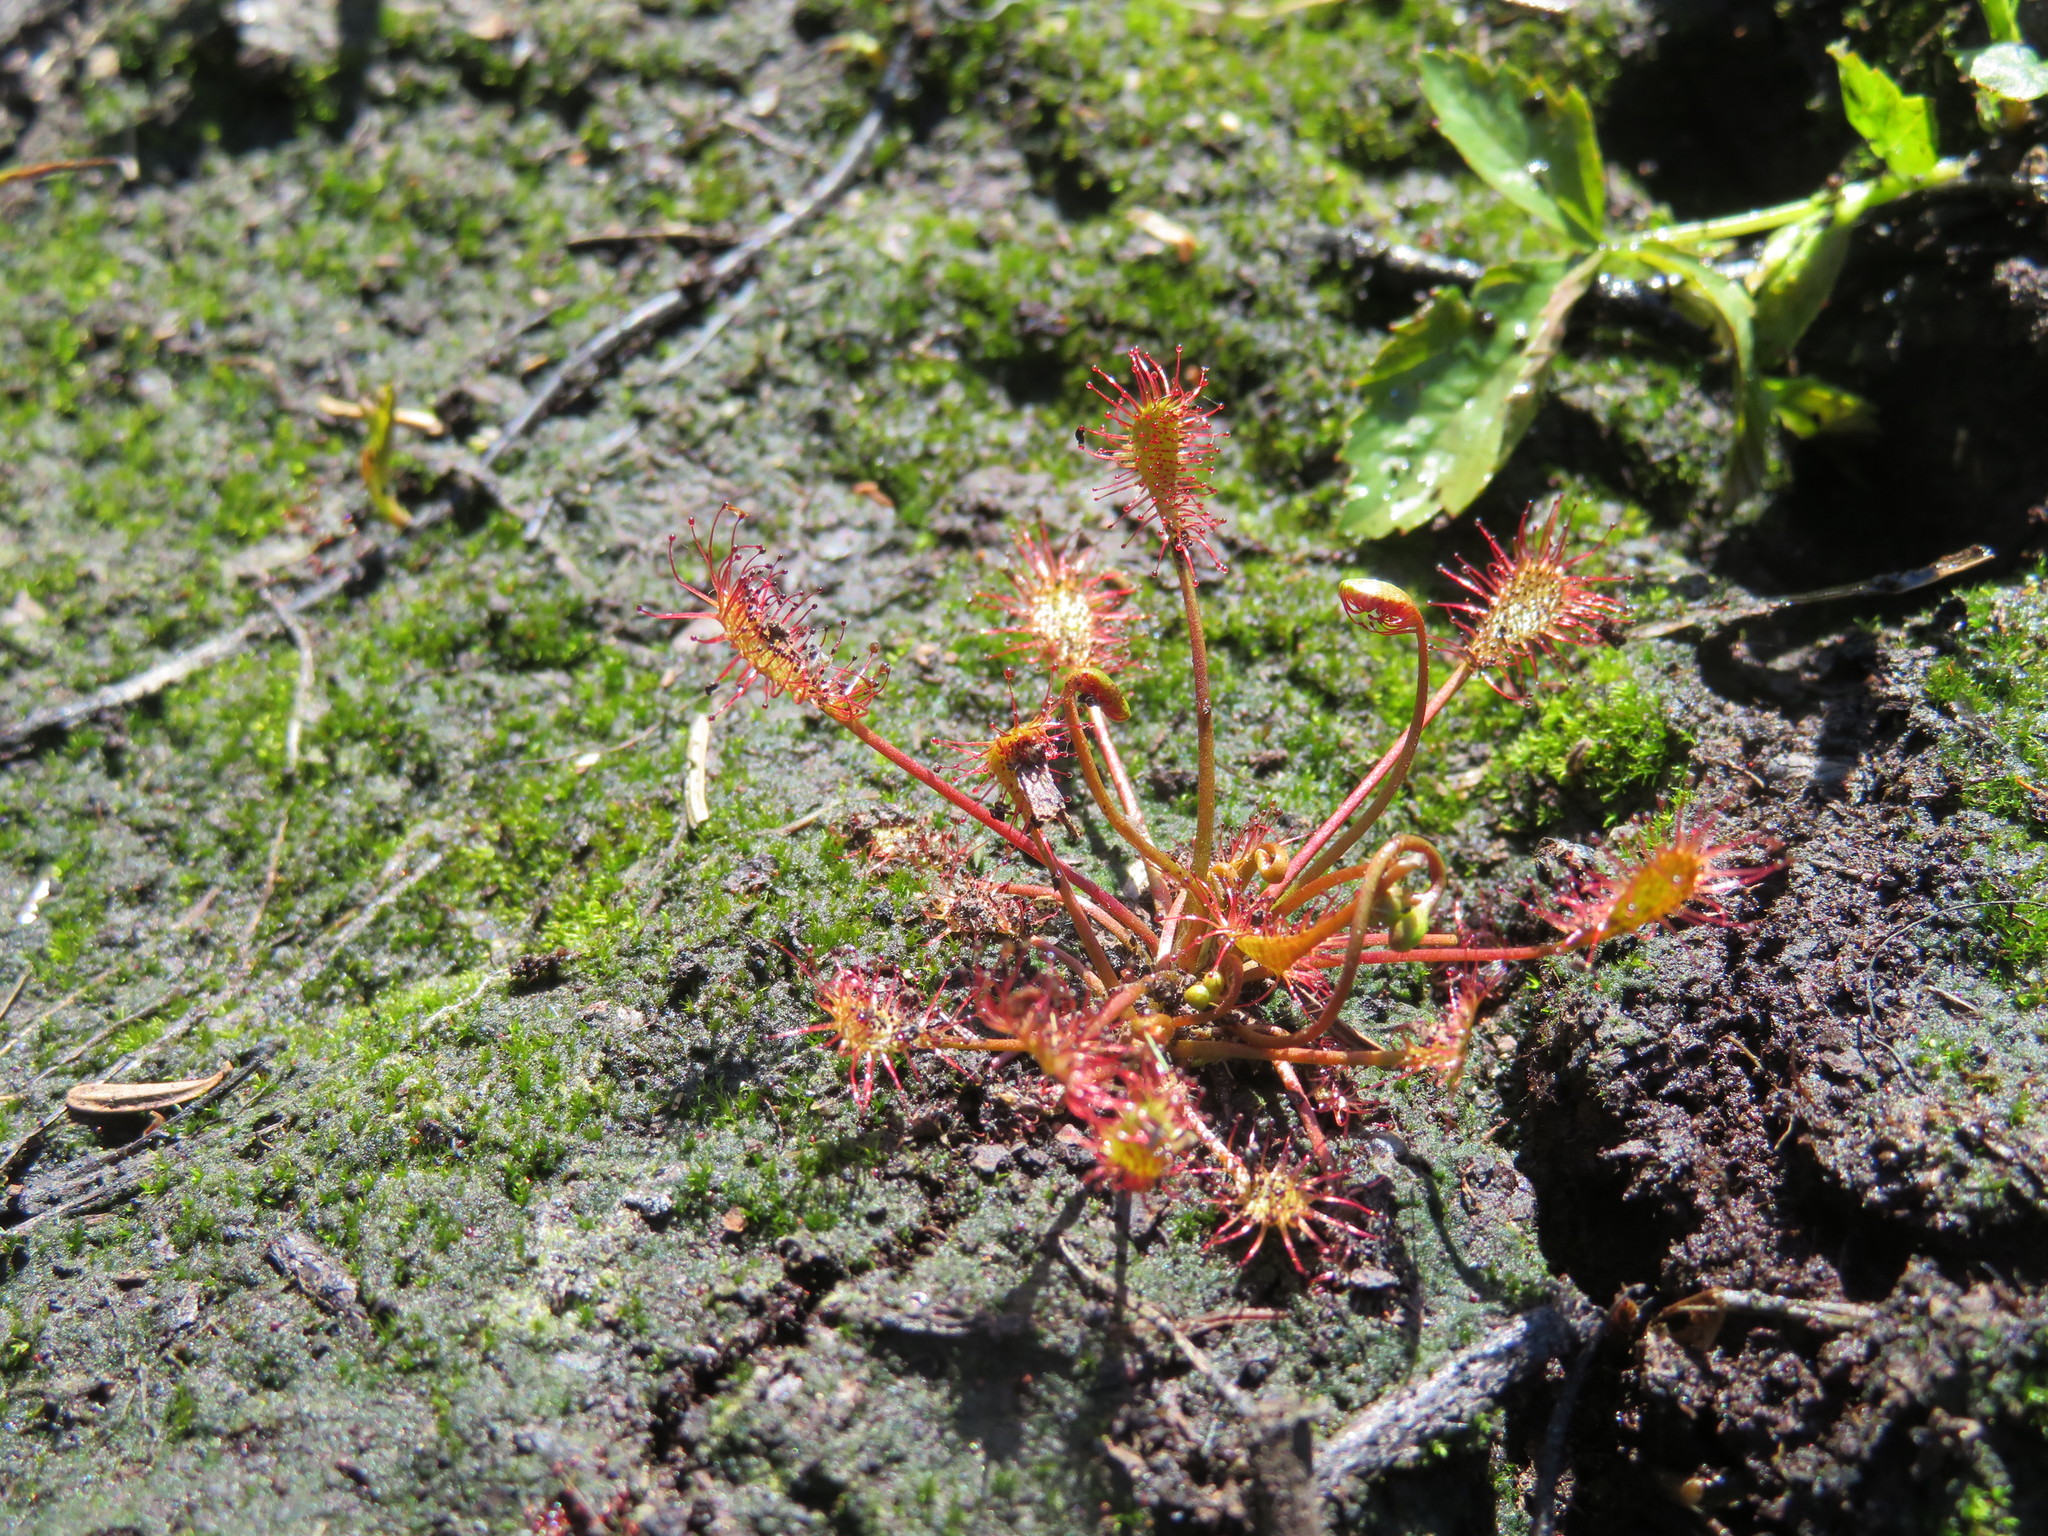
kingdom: Plantae
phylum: Tracheophyta
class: Magnoliopsida
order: Caryophyllales
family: Droseraceae
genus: Drosera
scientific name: Drosera intermedia
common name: Oblong-leaved sundew
